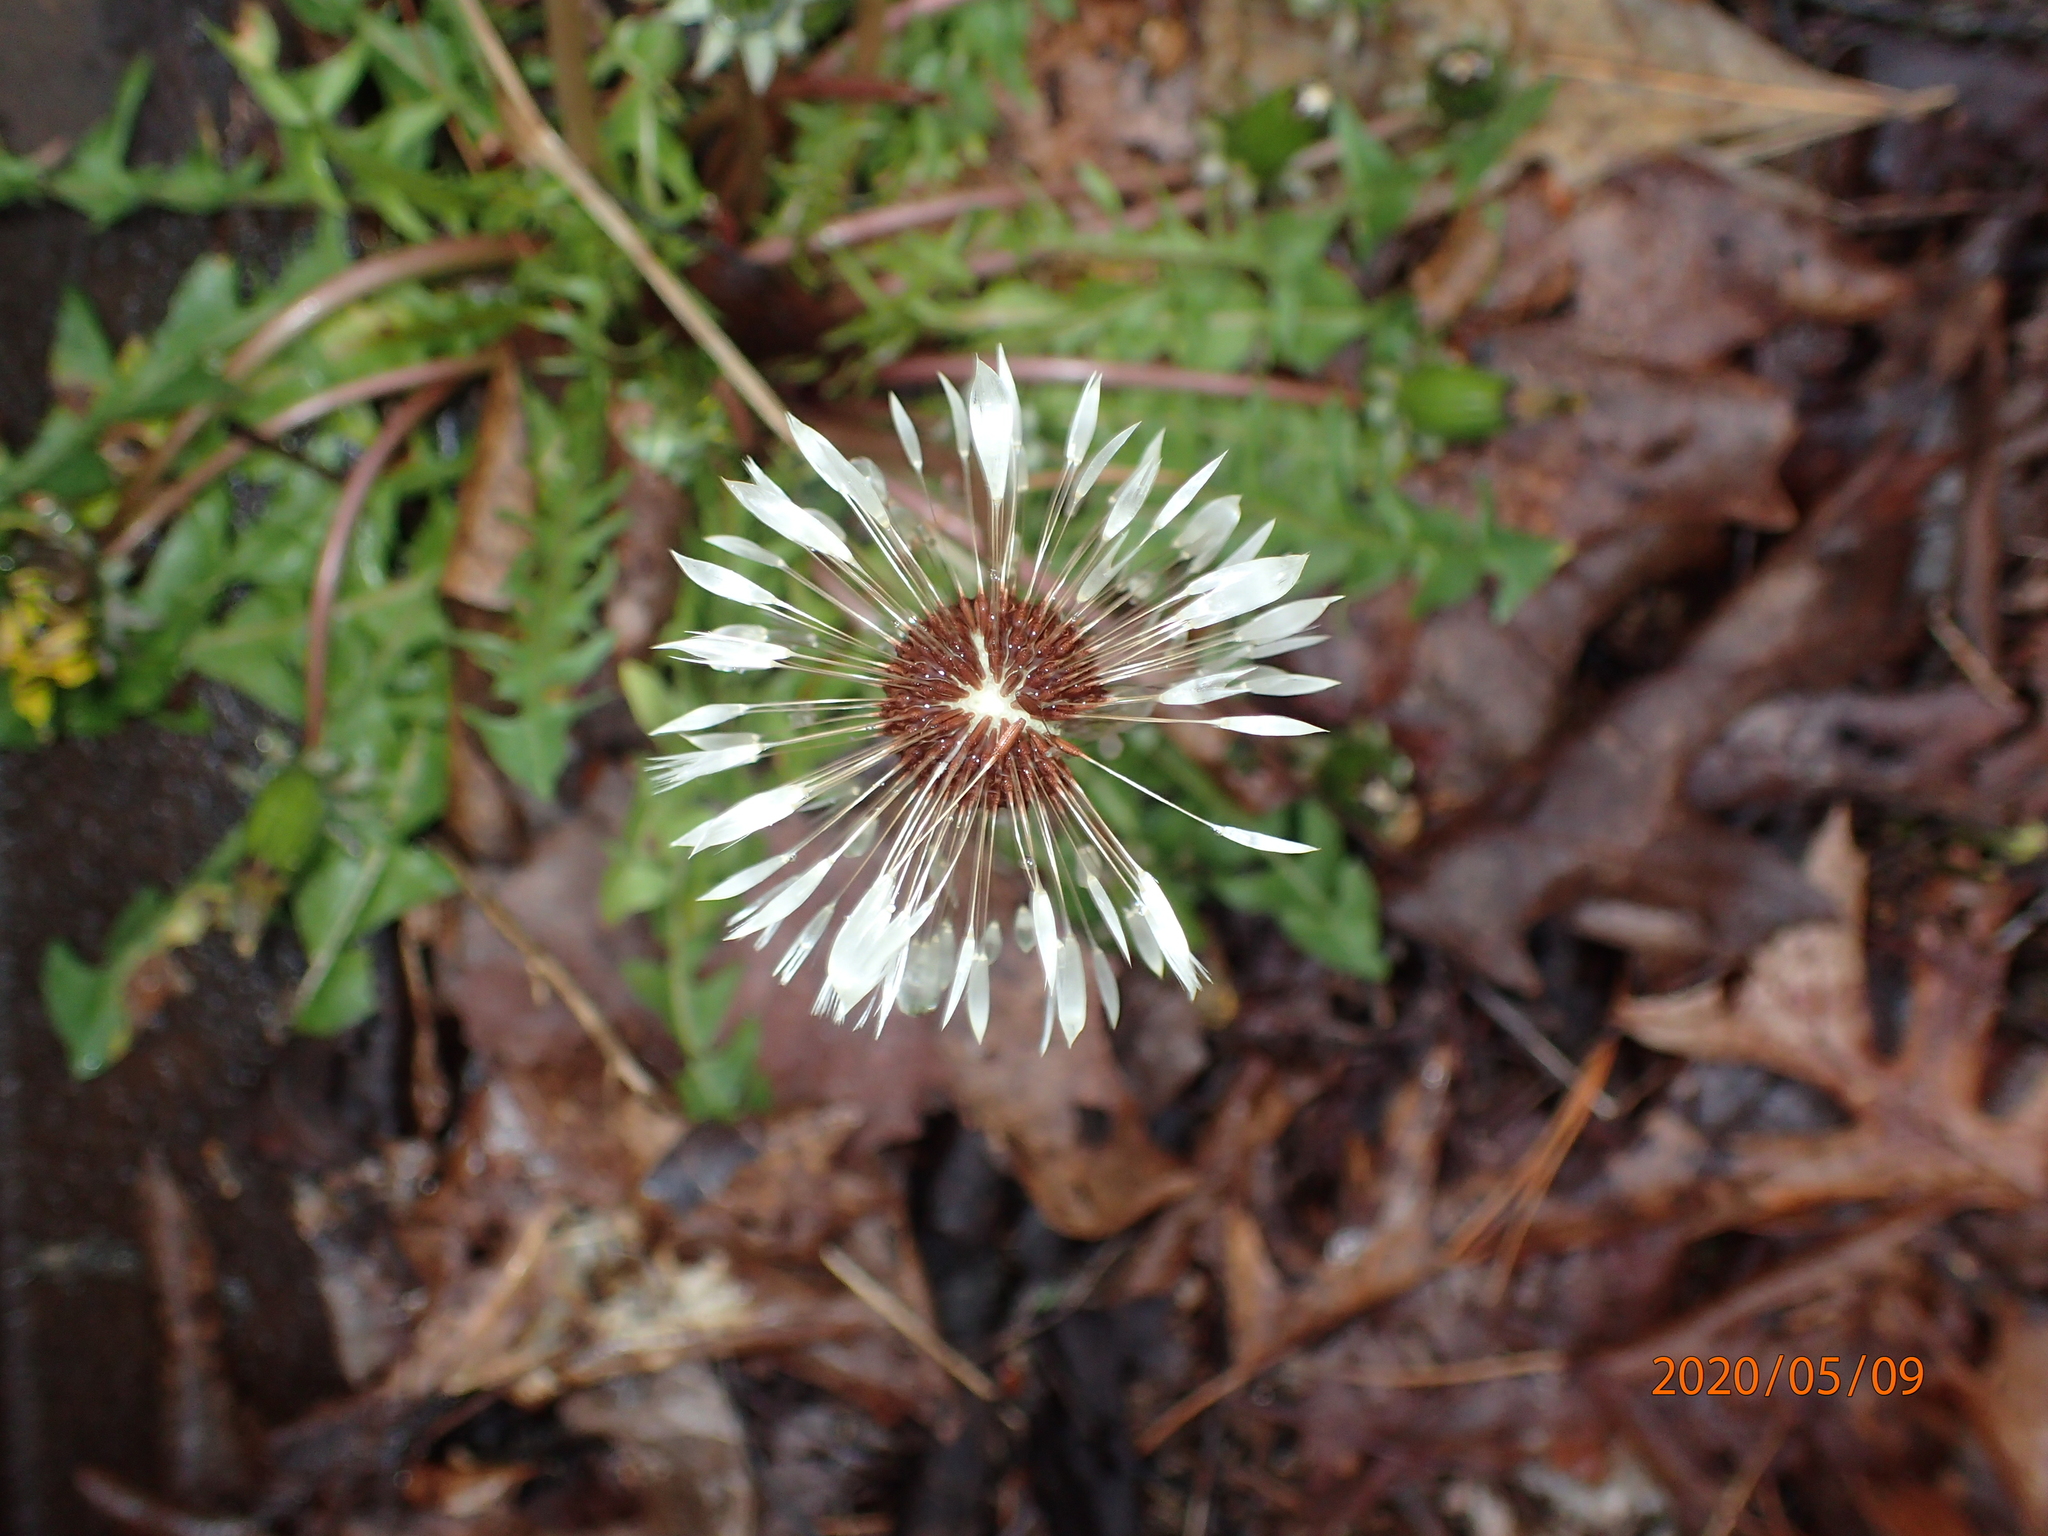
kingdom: Plantae
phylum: Tracheophyta
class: Magnoliopsida
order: Asterales
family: Asteraceae
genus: Taraxacum
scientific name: Taraxacum erythrospermum
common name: Rock dandelion
